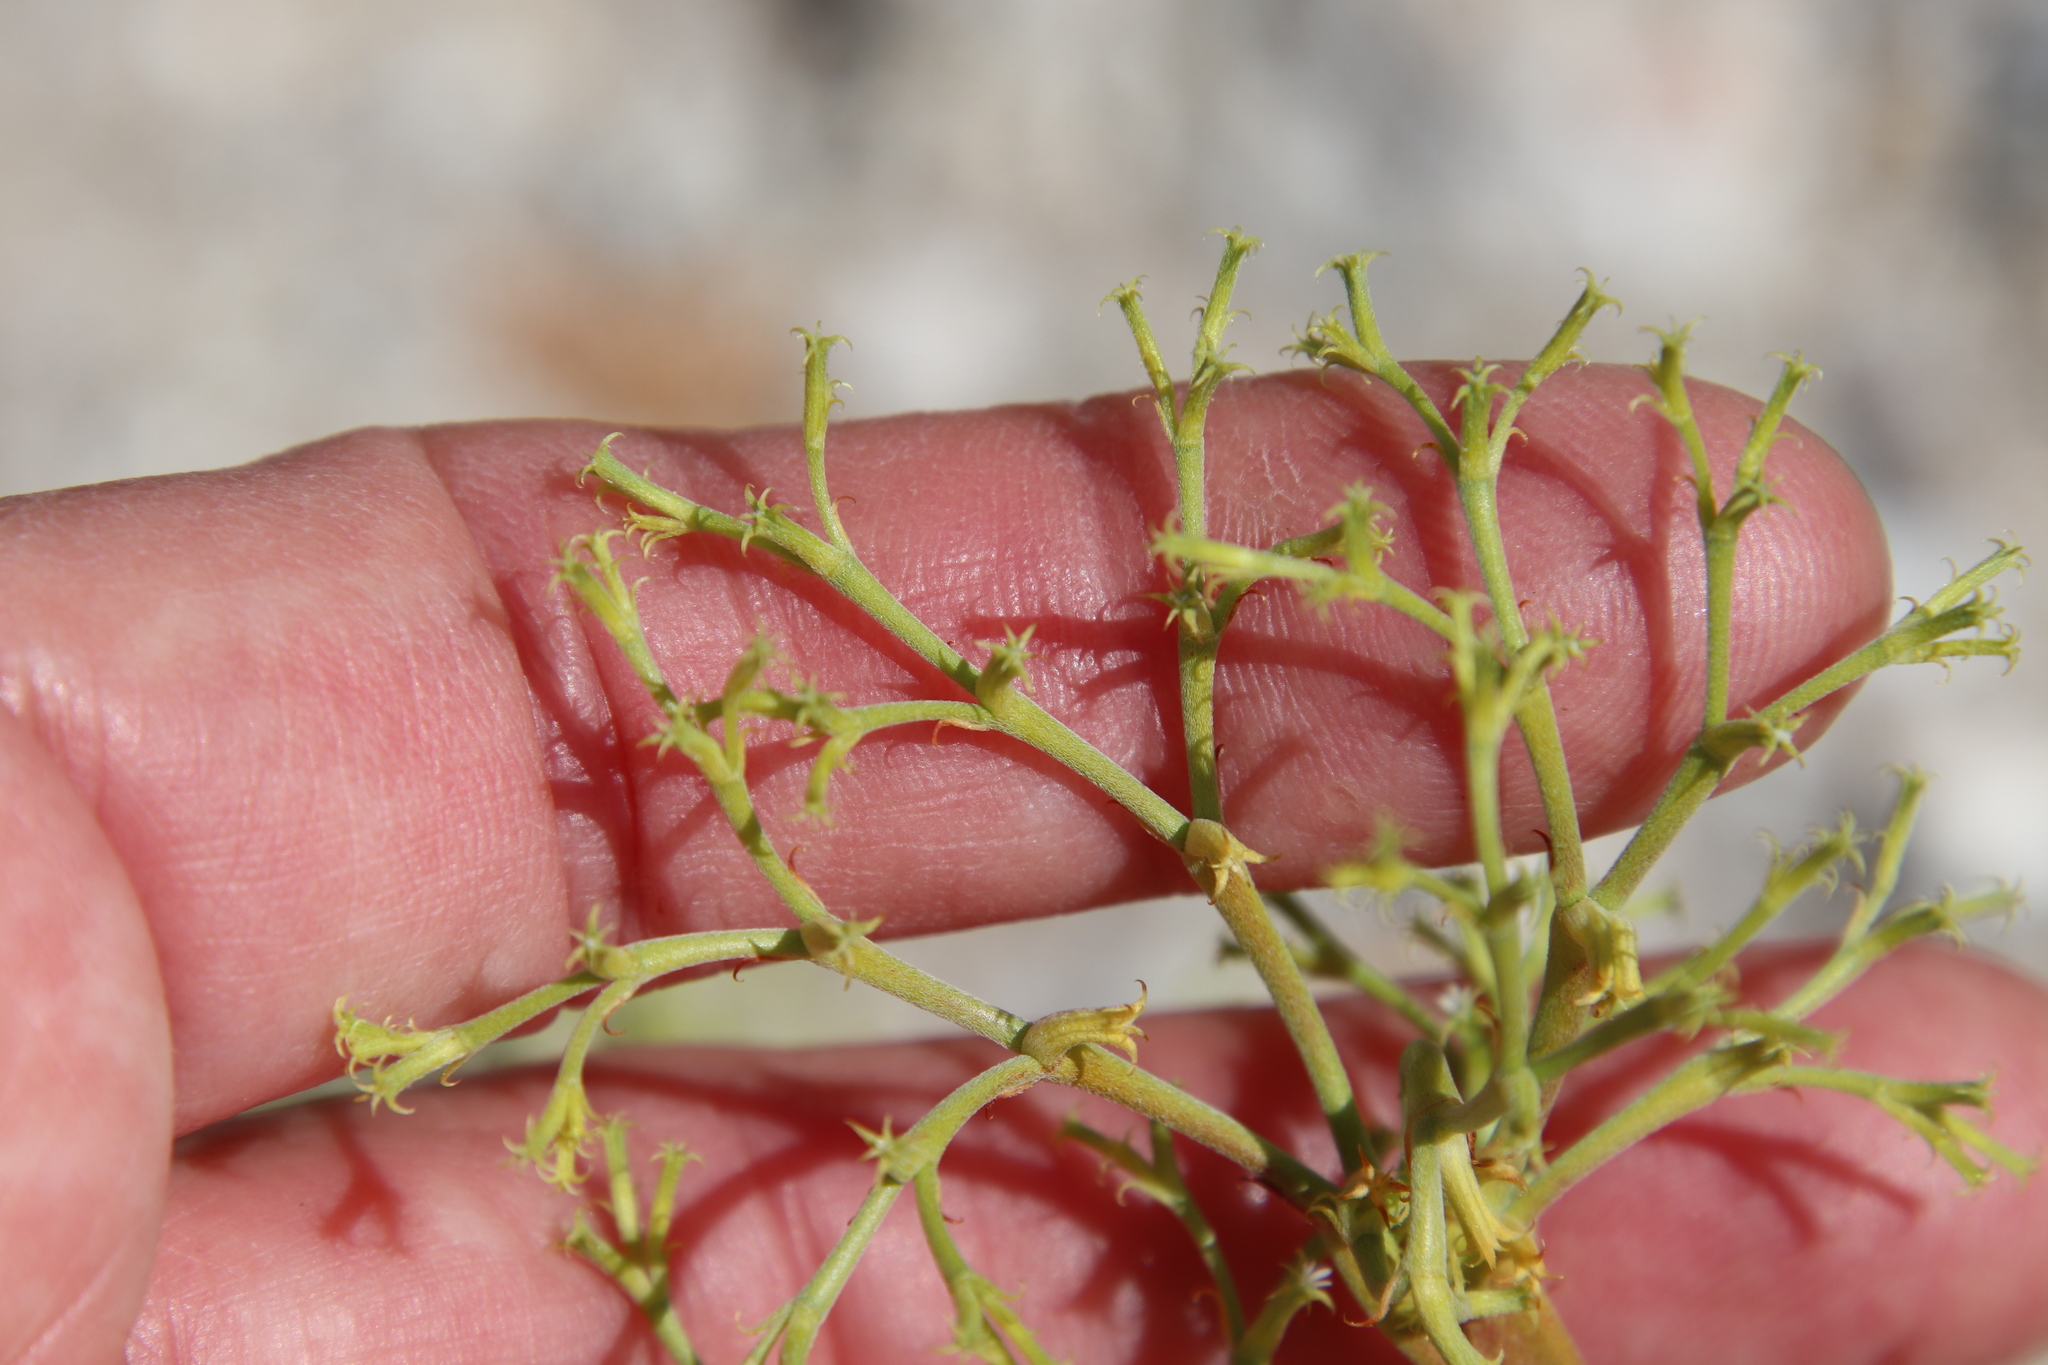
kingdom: Plantae
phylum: Tracheophyta
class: Magnoliopsida
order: Caryophyllales
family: Polygonaceae
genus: Chorizanthe
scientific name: Chorizanthe brevicornu
